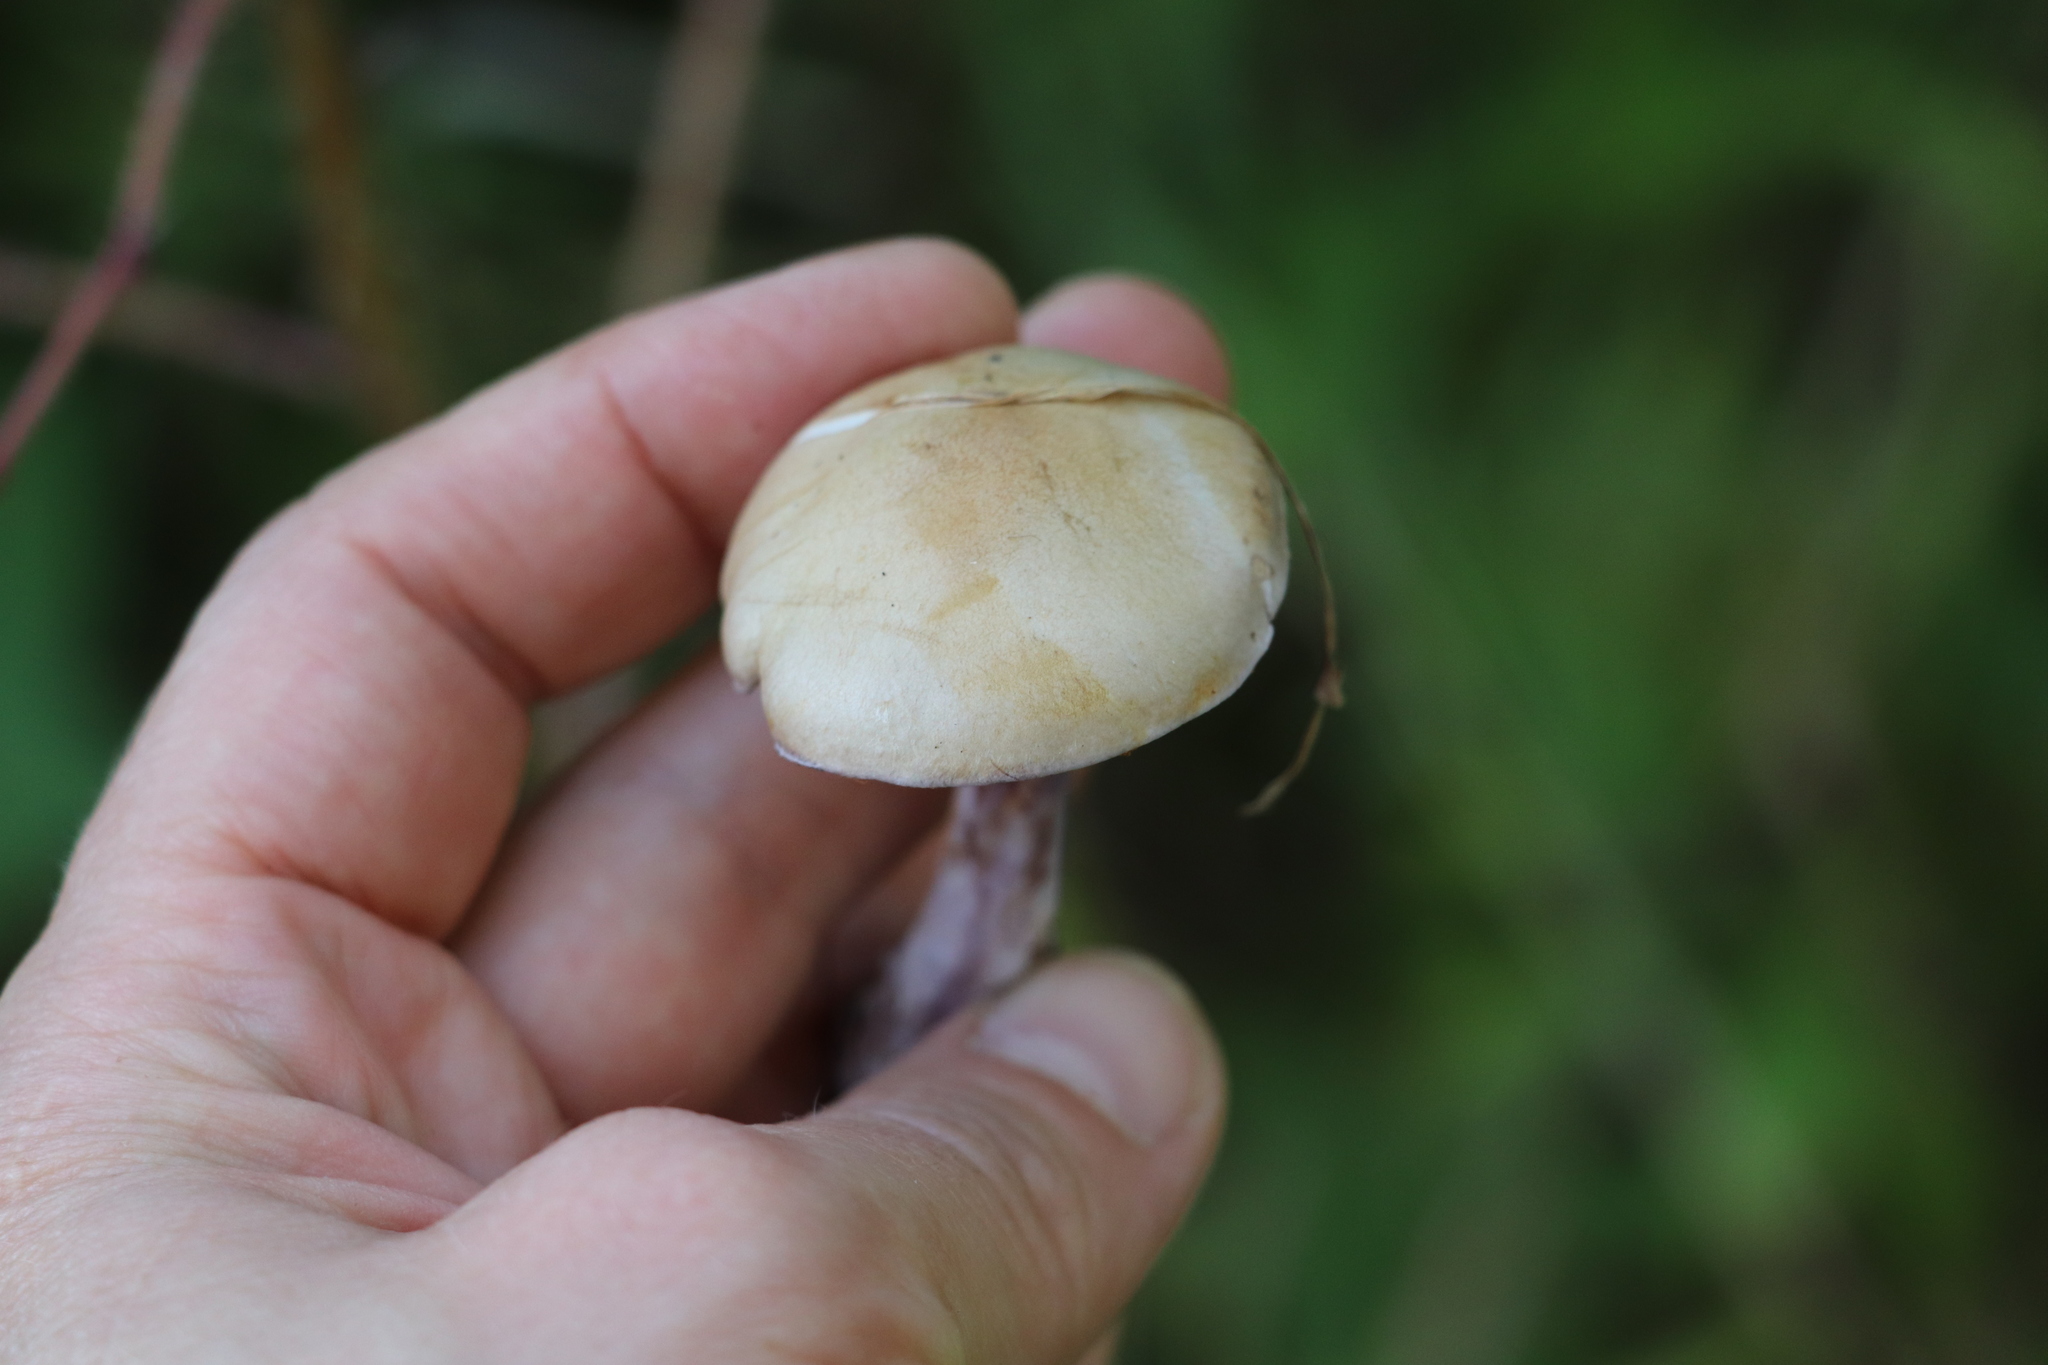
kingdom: Fungi
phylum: Basidiomycota
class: Agaricomycetes
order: Agaricales
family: Cortinariaceae
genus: Thaxterogaster
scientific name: Thaxterogaster porphyropus
